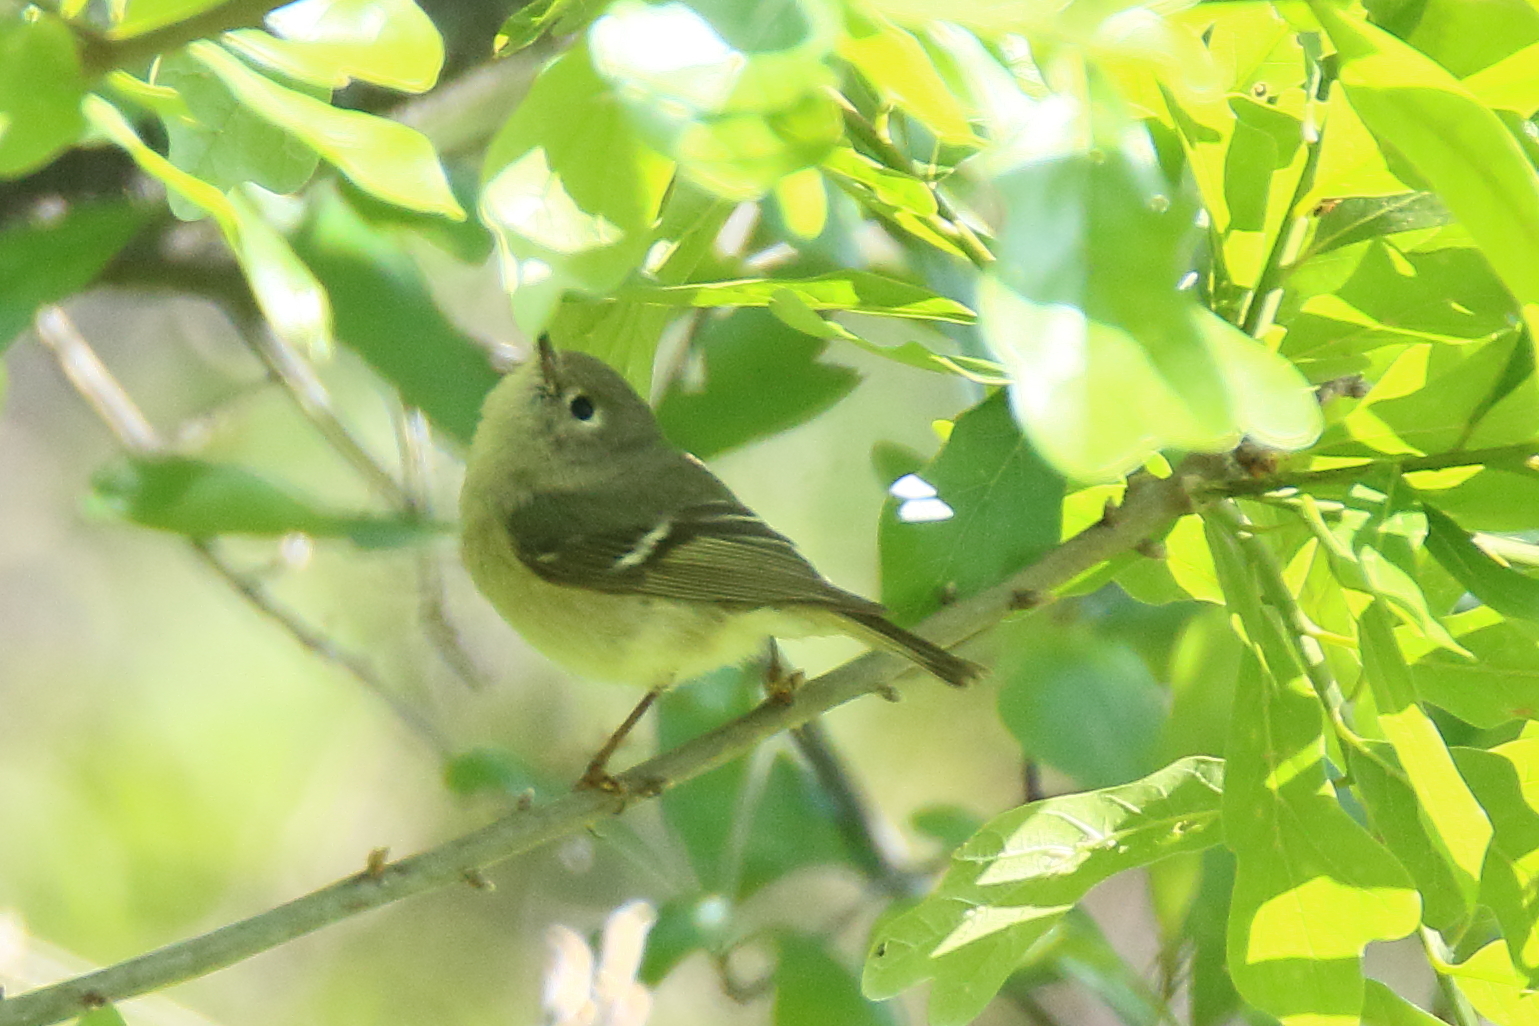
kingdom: Animalia
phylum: Chordata
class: Aves
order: Passeriformes
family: Regulidae
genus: Regulus
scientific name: Regulus calendula
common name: Ruby-crowned kinglet
